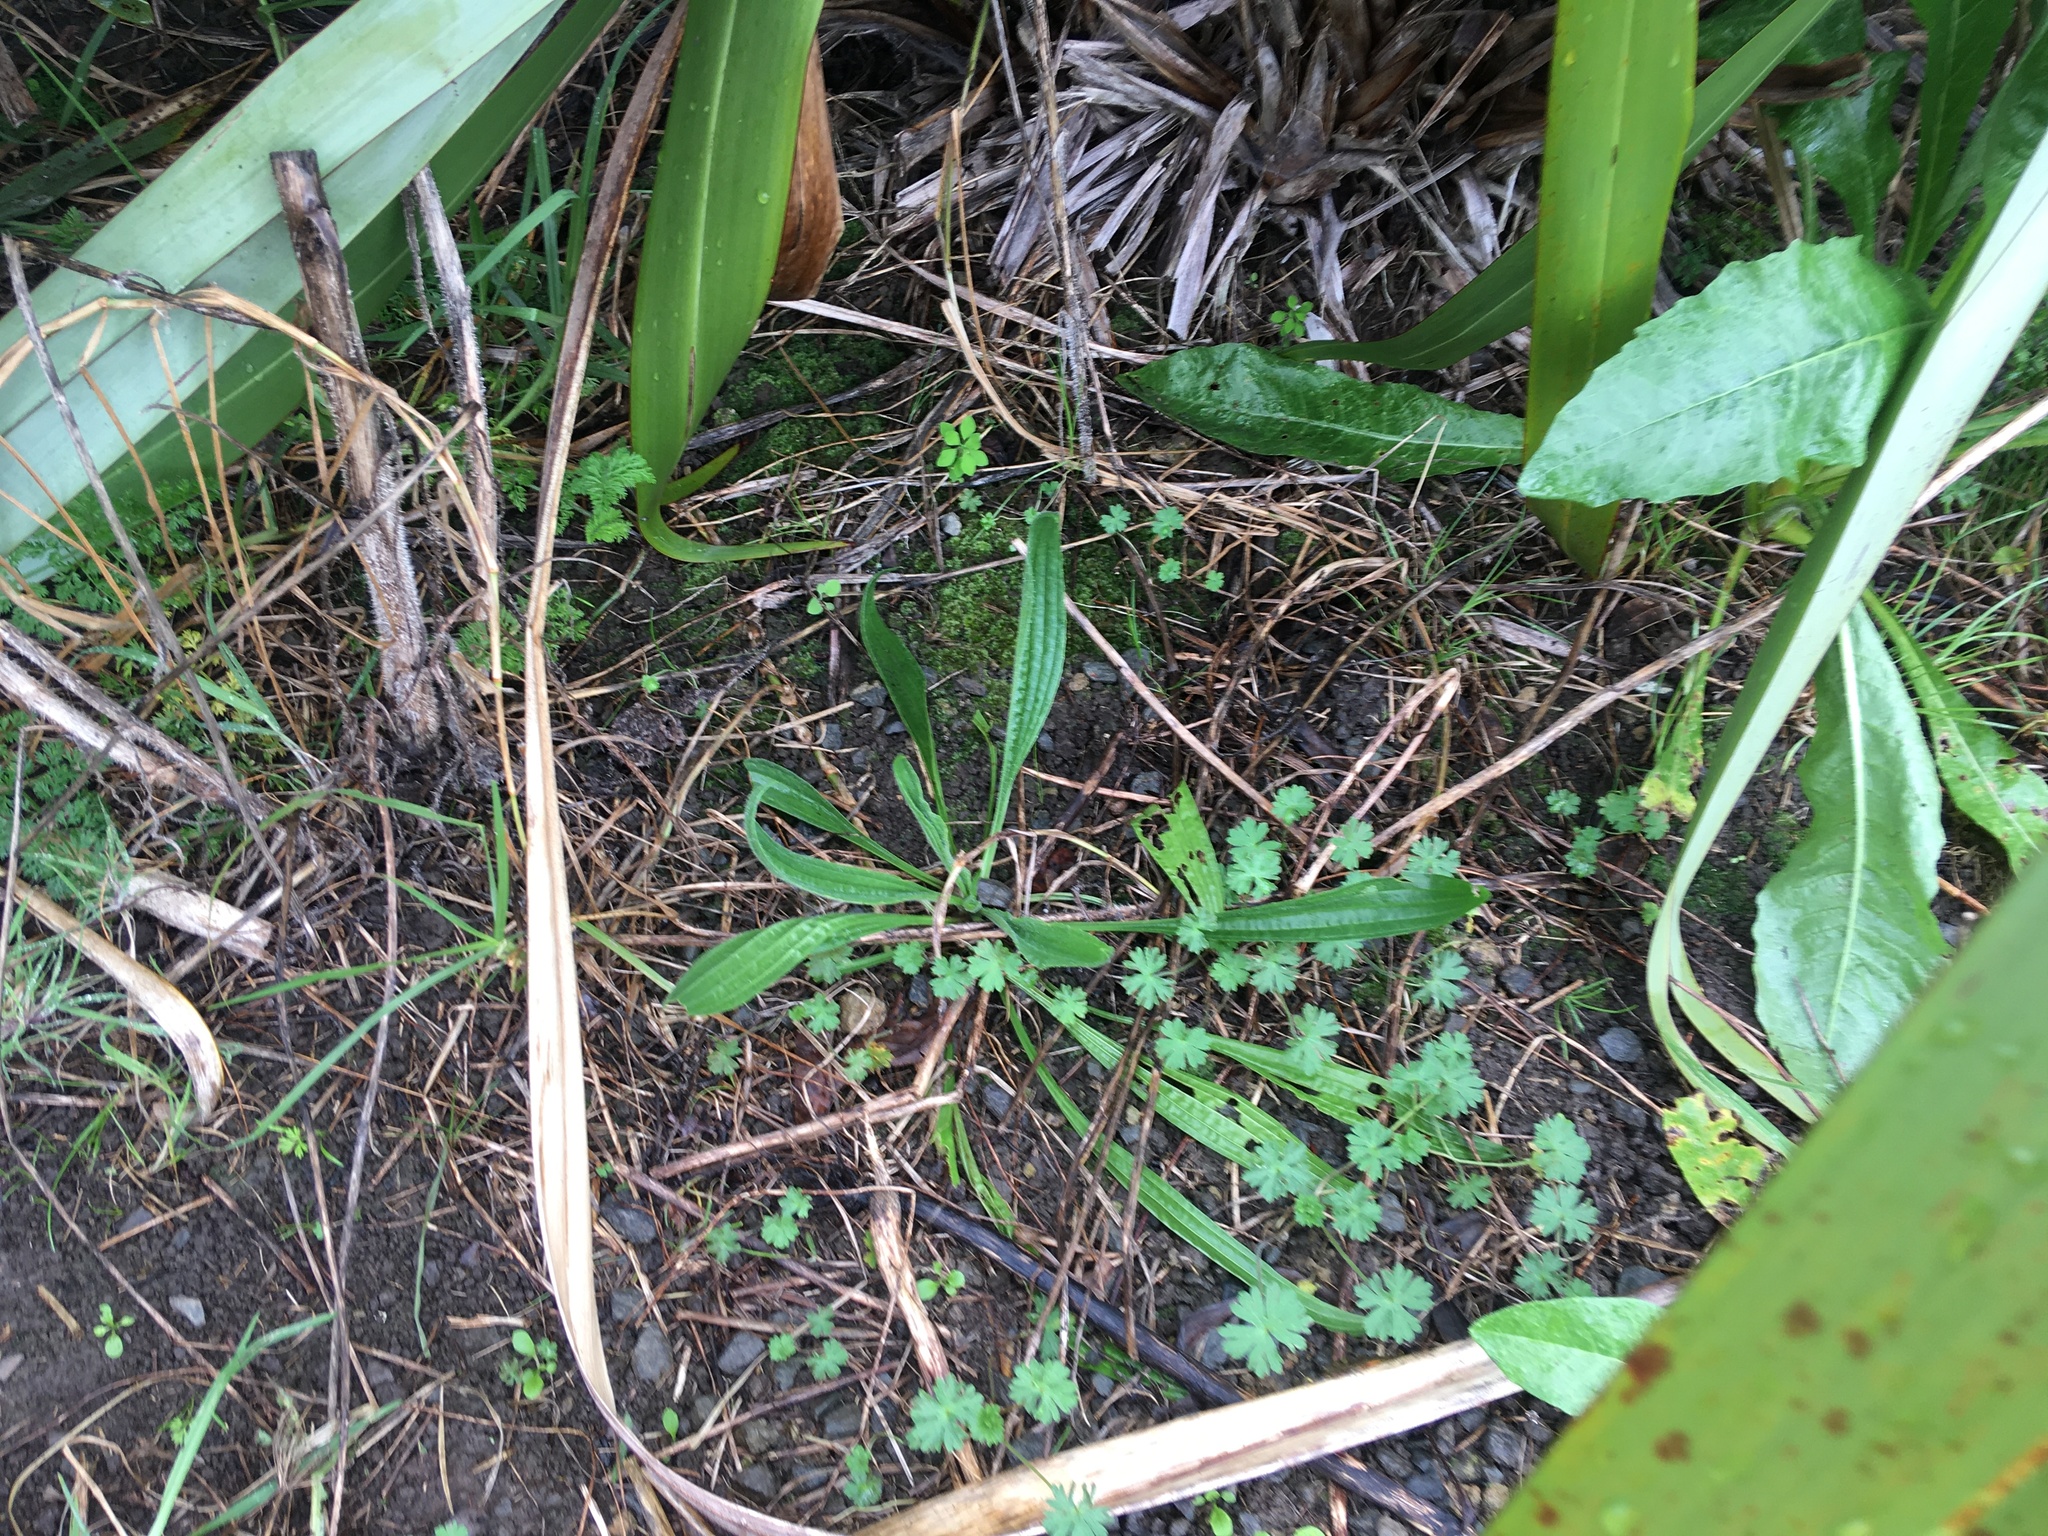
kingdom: Plantae
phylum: Tracheophyta
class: Magnoliopsida
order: Lamiales
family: Plantaginaceae
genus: Plantago
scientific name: Plantago lanceolata
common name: Ribwort plantain
